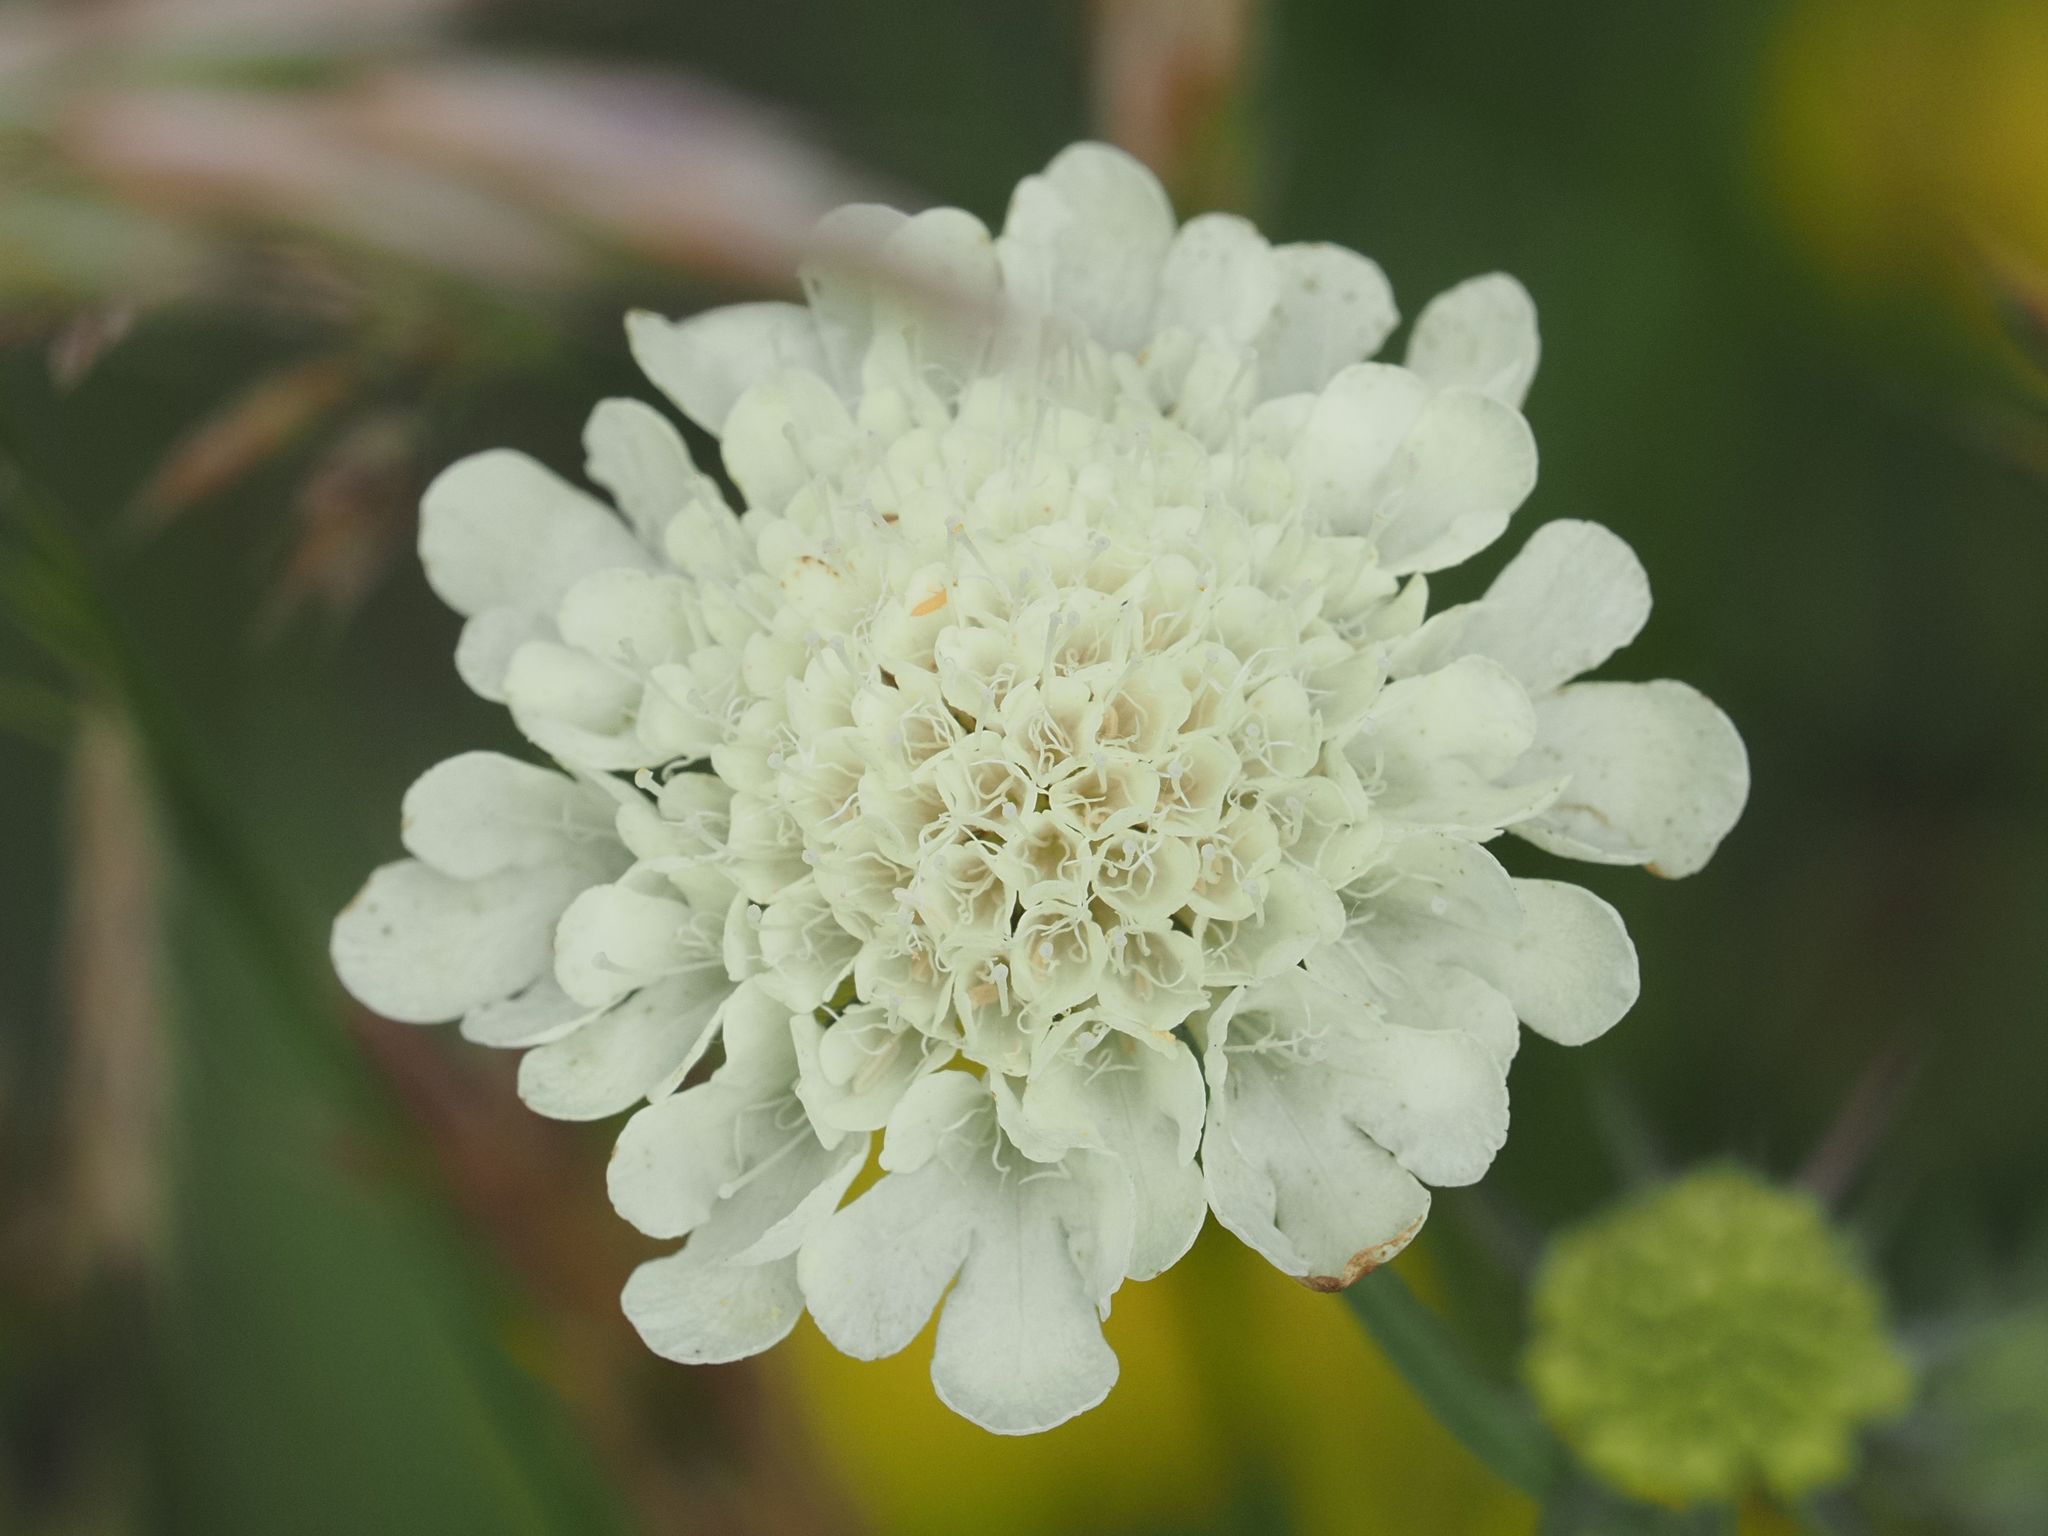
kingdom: Plantae
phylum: Tracheophyta
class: Magnoliopsida
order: Dipsacales
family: Caprifoliaceae
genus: Scabiosa
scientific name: Scabiosa ochroleuca
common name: Cream pincushions
